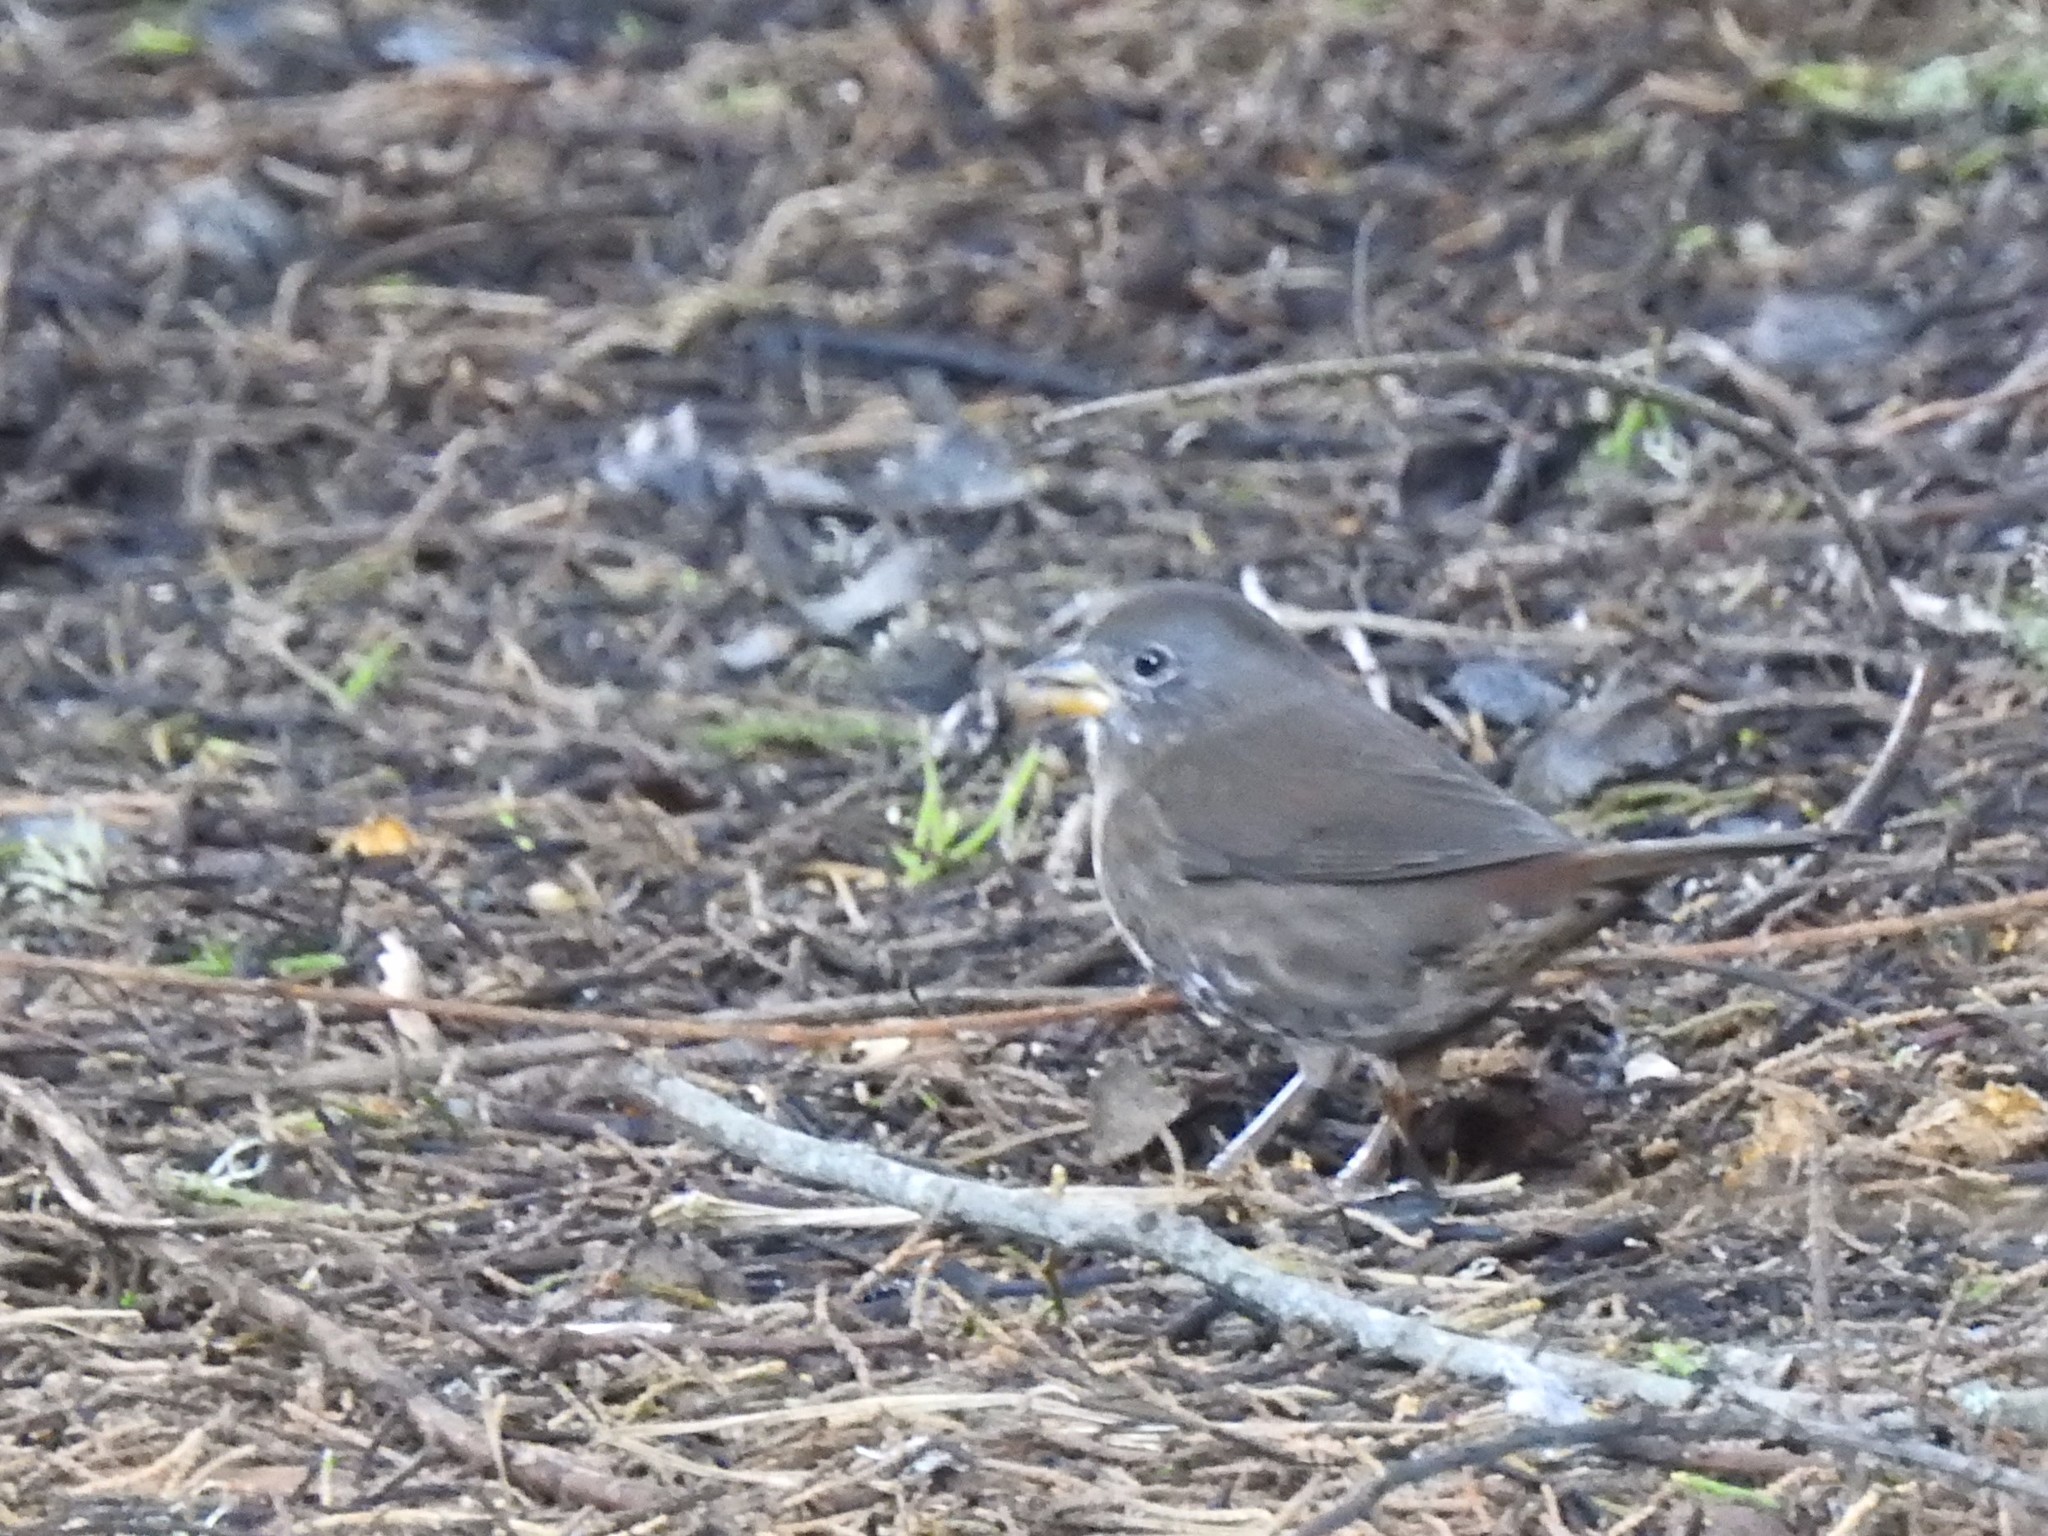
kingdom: Animalia
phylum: Chordata
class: Aves
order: Passeriformes
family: Passerellidae
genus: Passerella
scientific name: Passerella iliaca
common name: Fox sparrow
